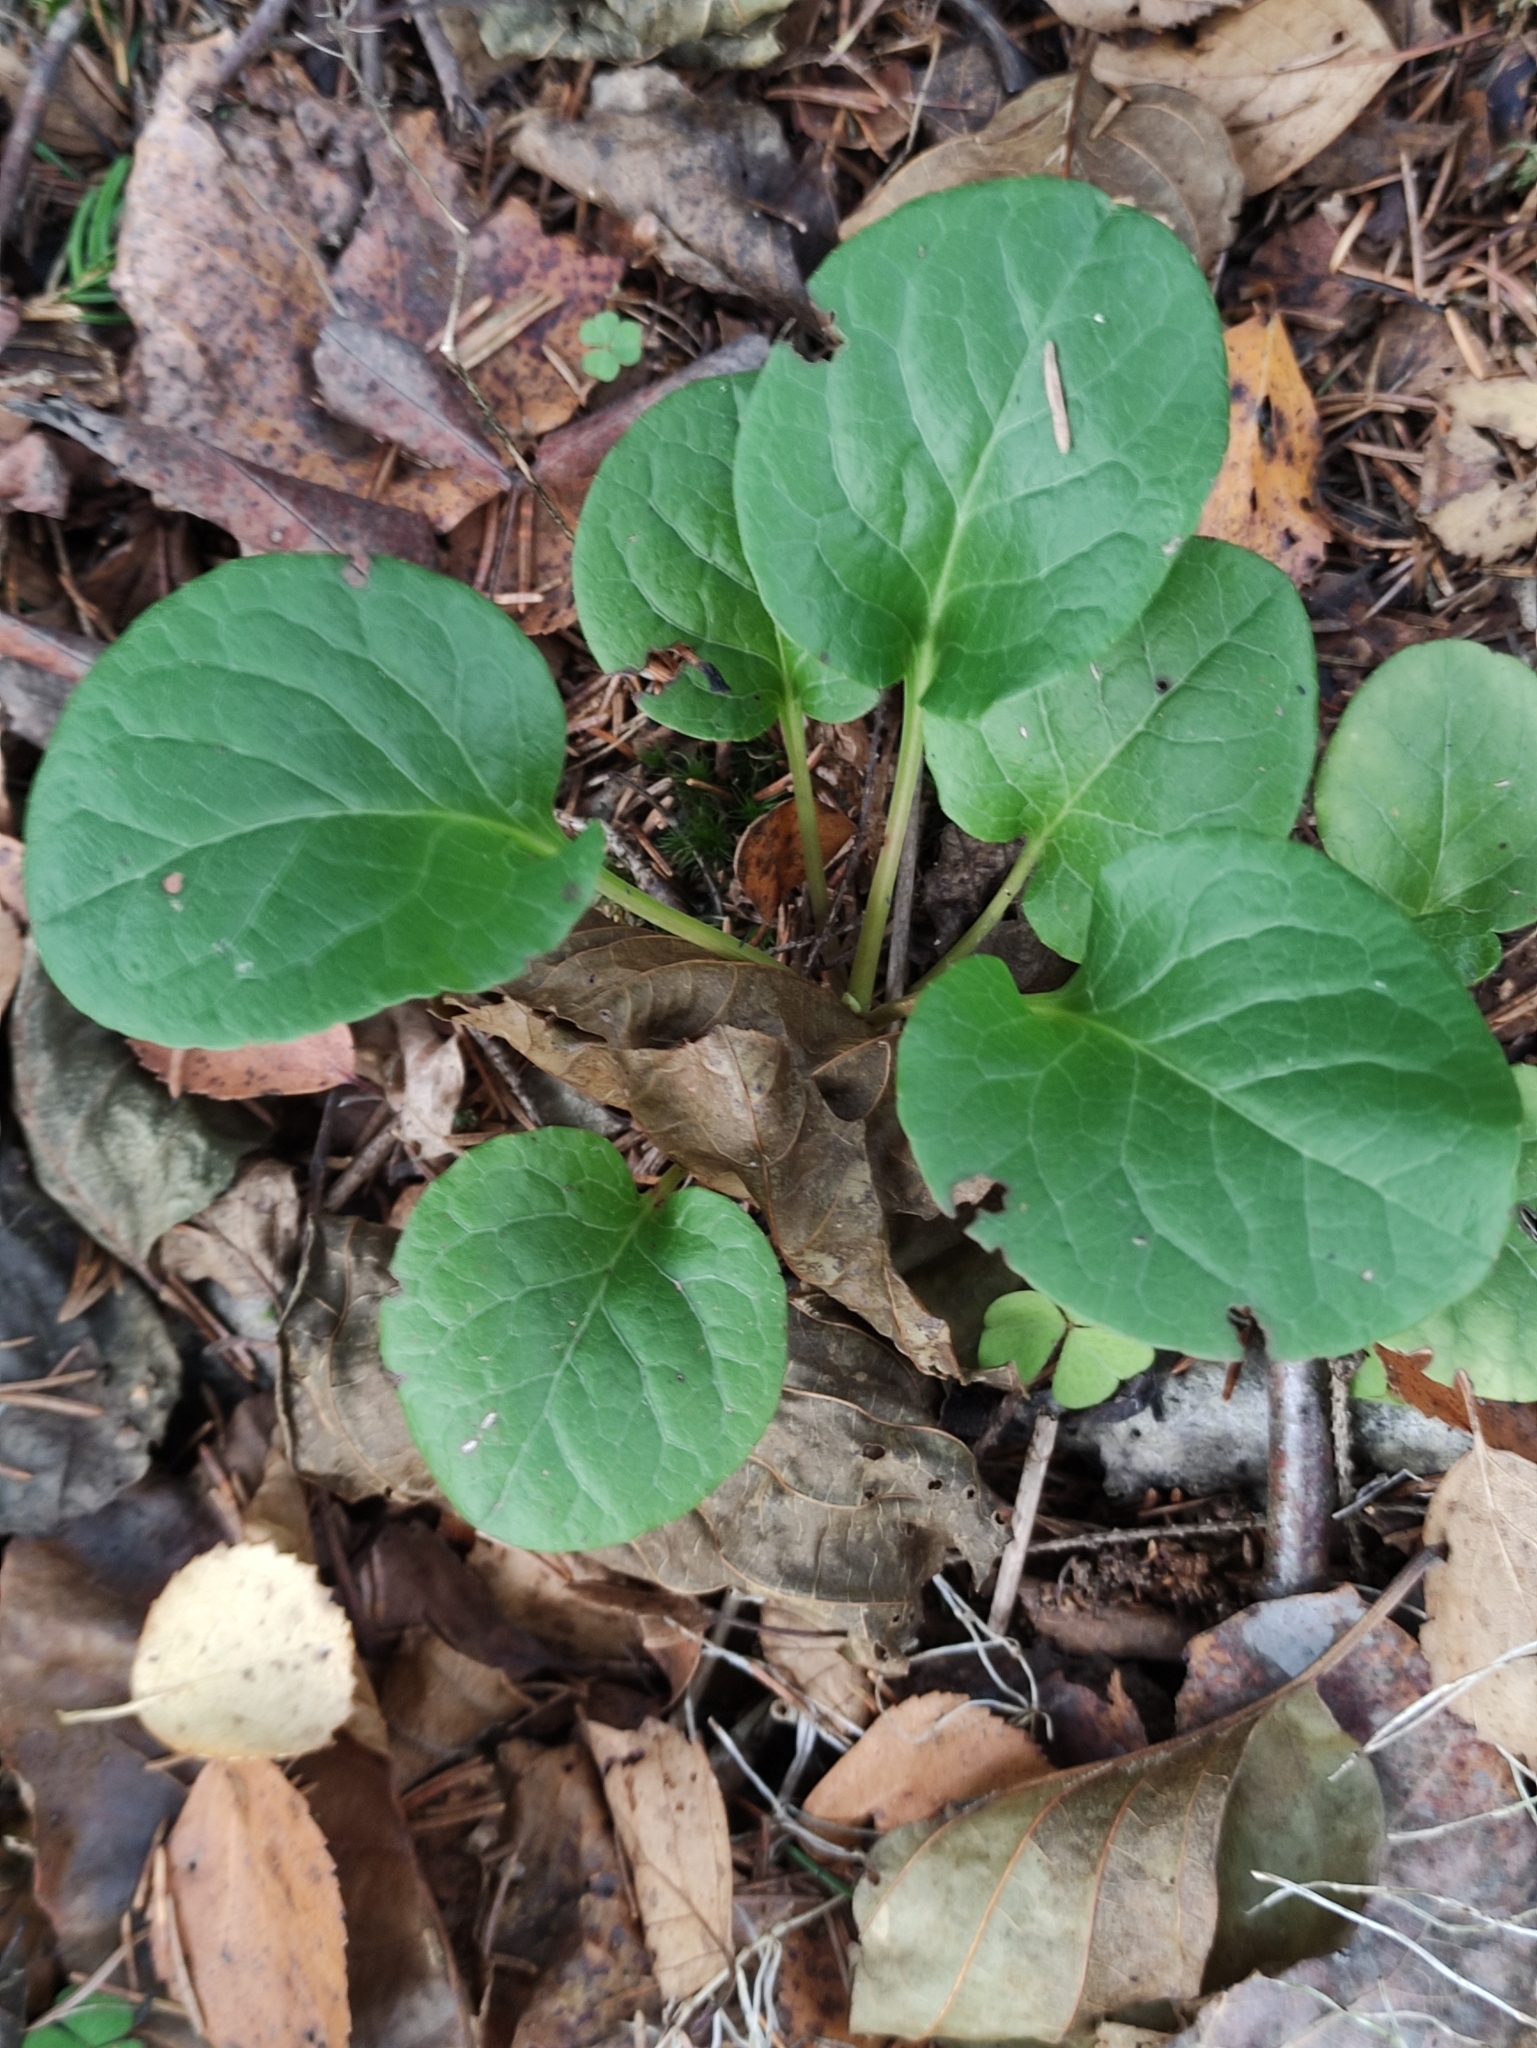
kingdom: Plantae
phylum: Tracheophyta
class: Magnoliopsida
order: Ericales
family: Ericaceae
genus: Pyrola
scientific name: Pyrola rotundifolia
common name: Round-leaved wintergreen
